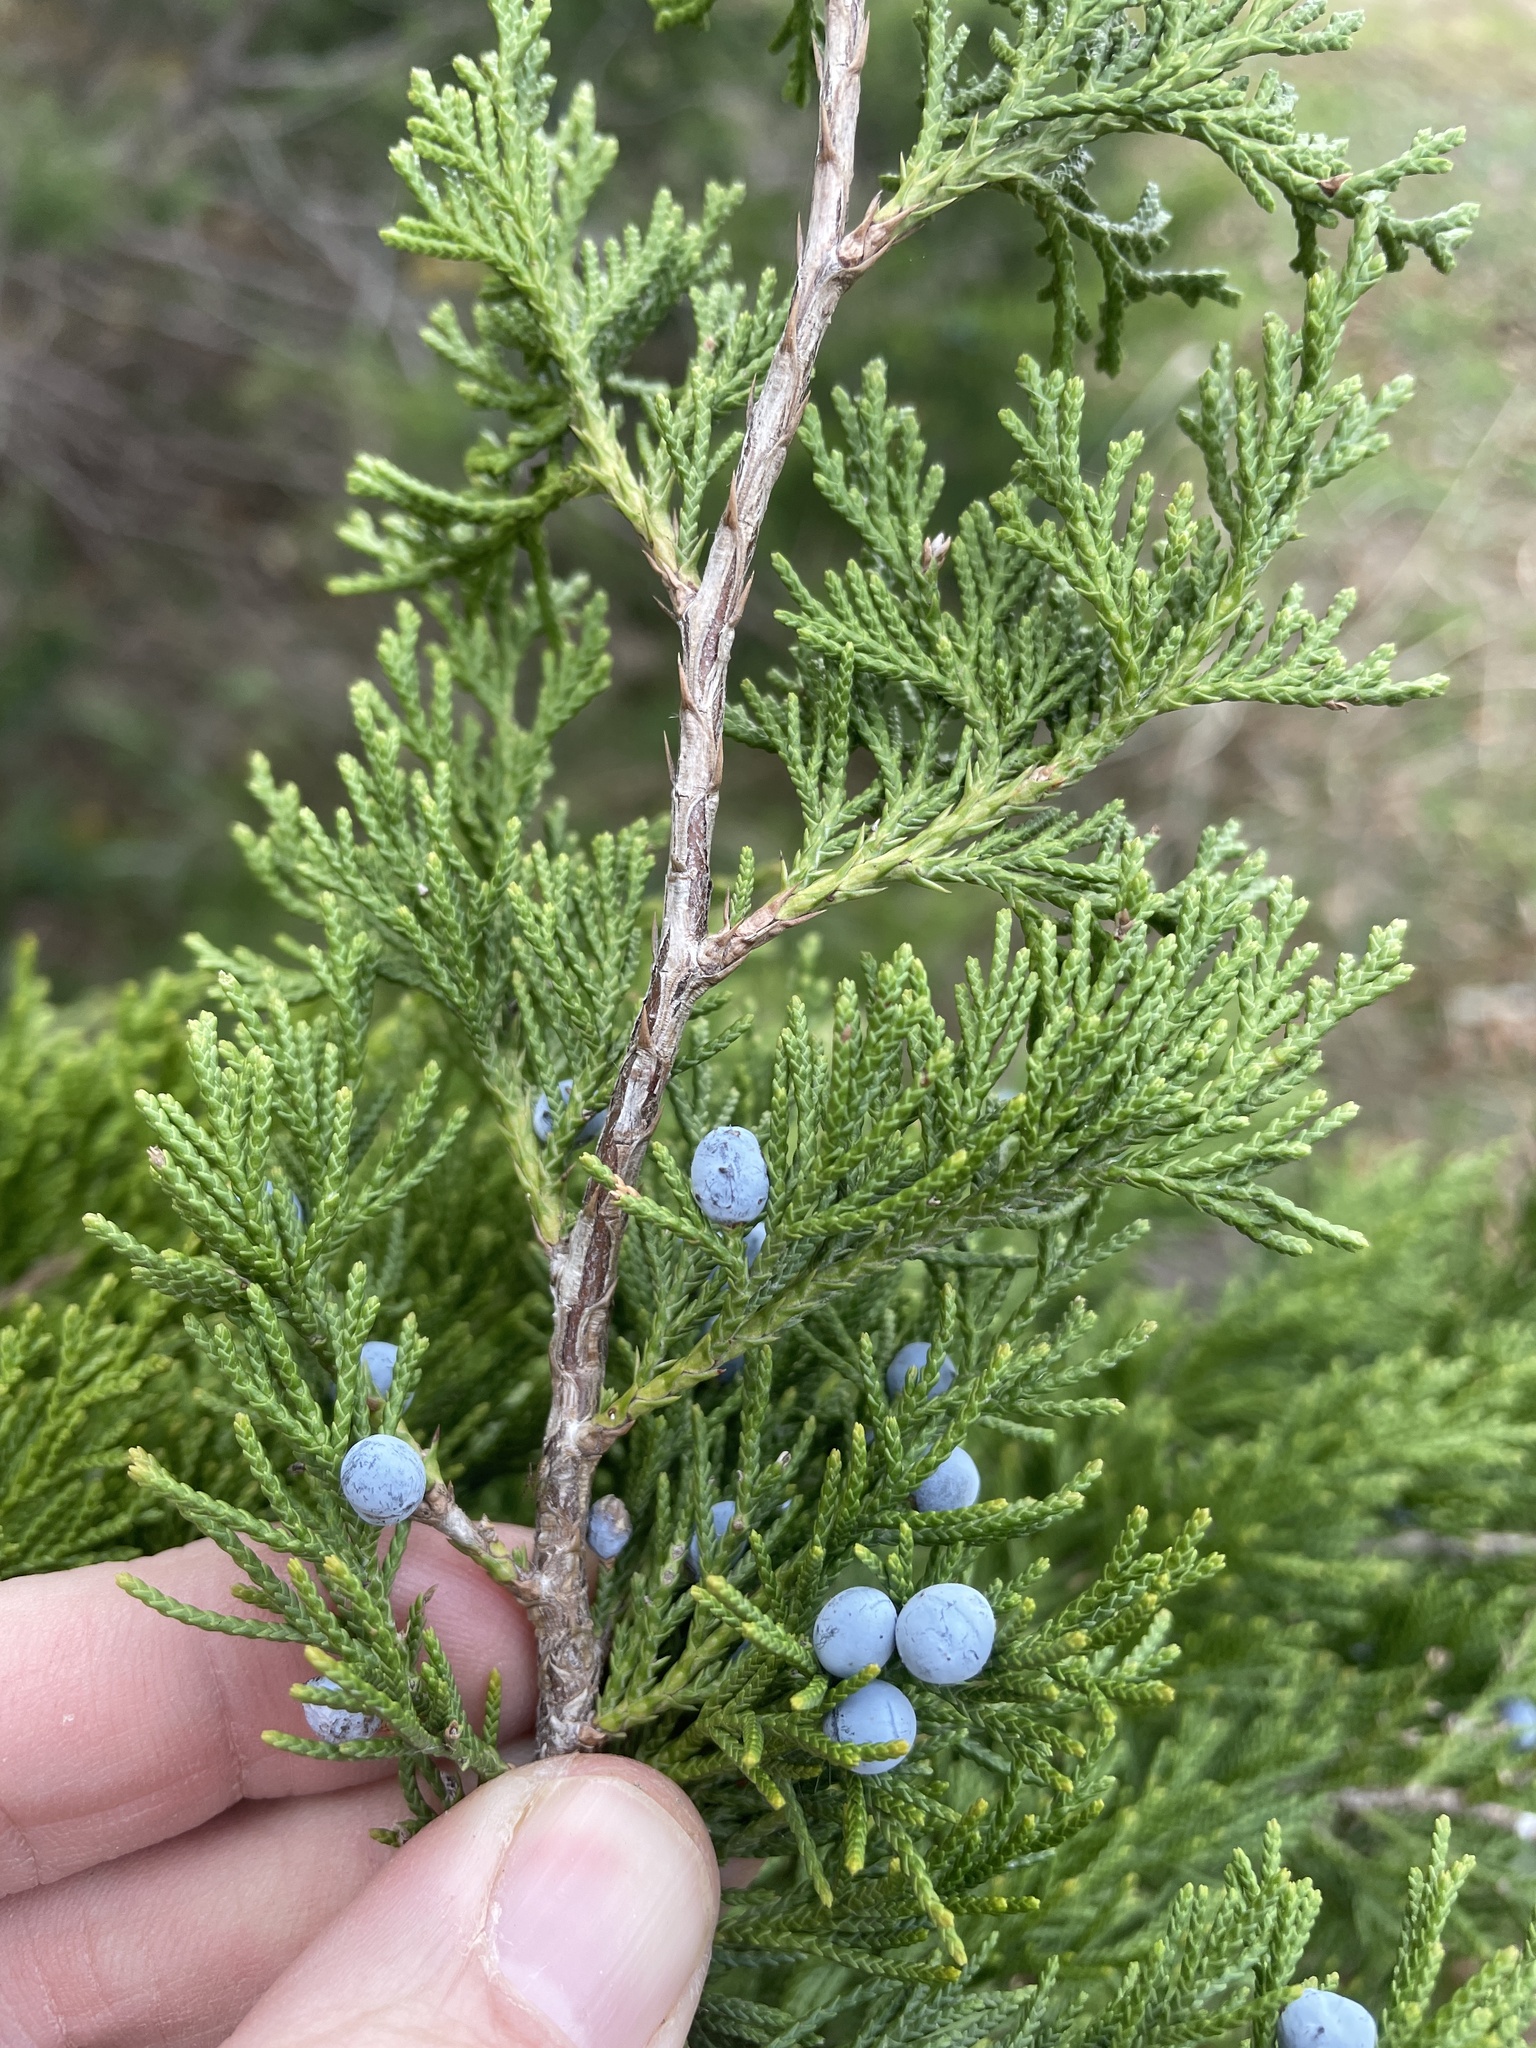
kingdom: Plantae
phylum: Tracheophyta
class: Pinopsida
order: Pinales
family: Cupressaceae
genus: Juniperus
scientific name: Juniperus virginiana
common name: Red juniper
